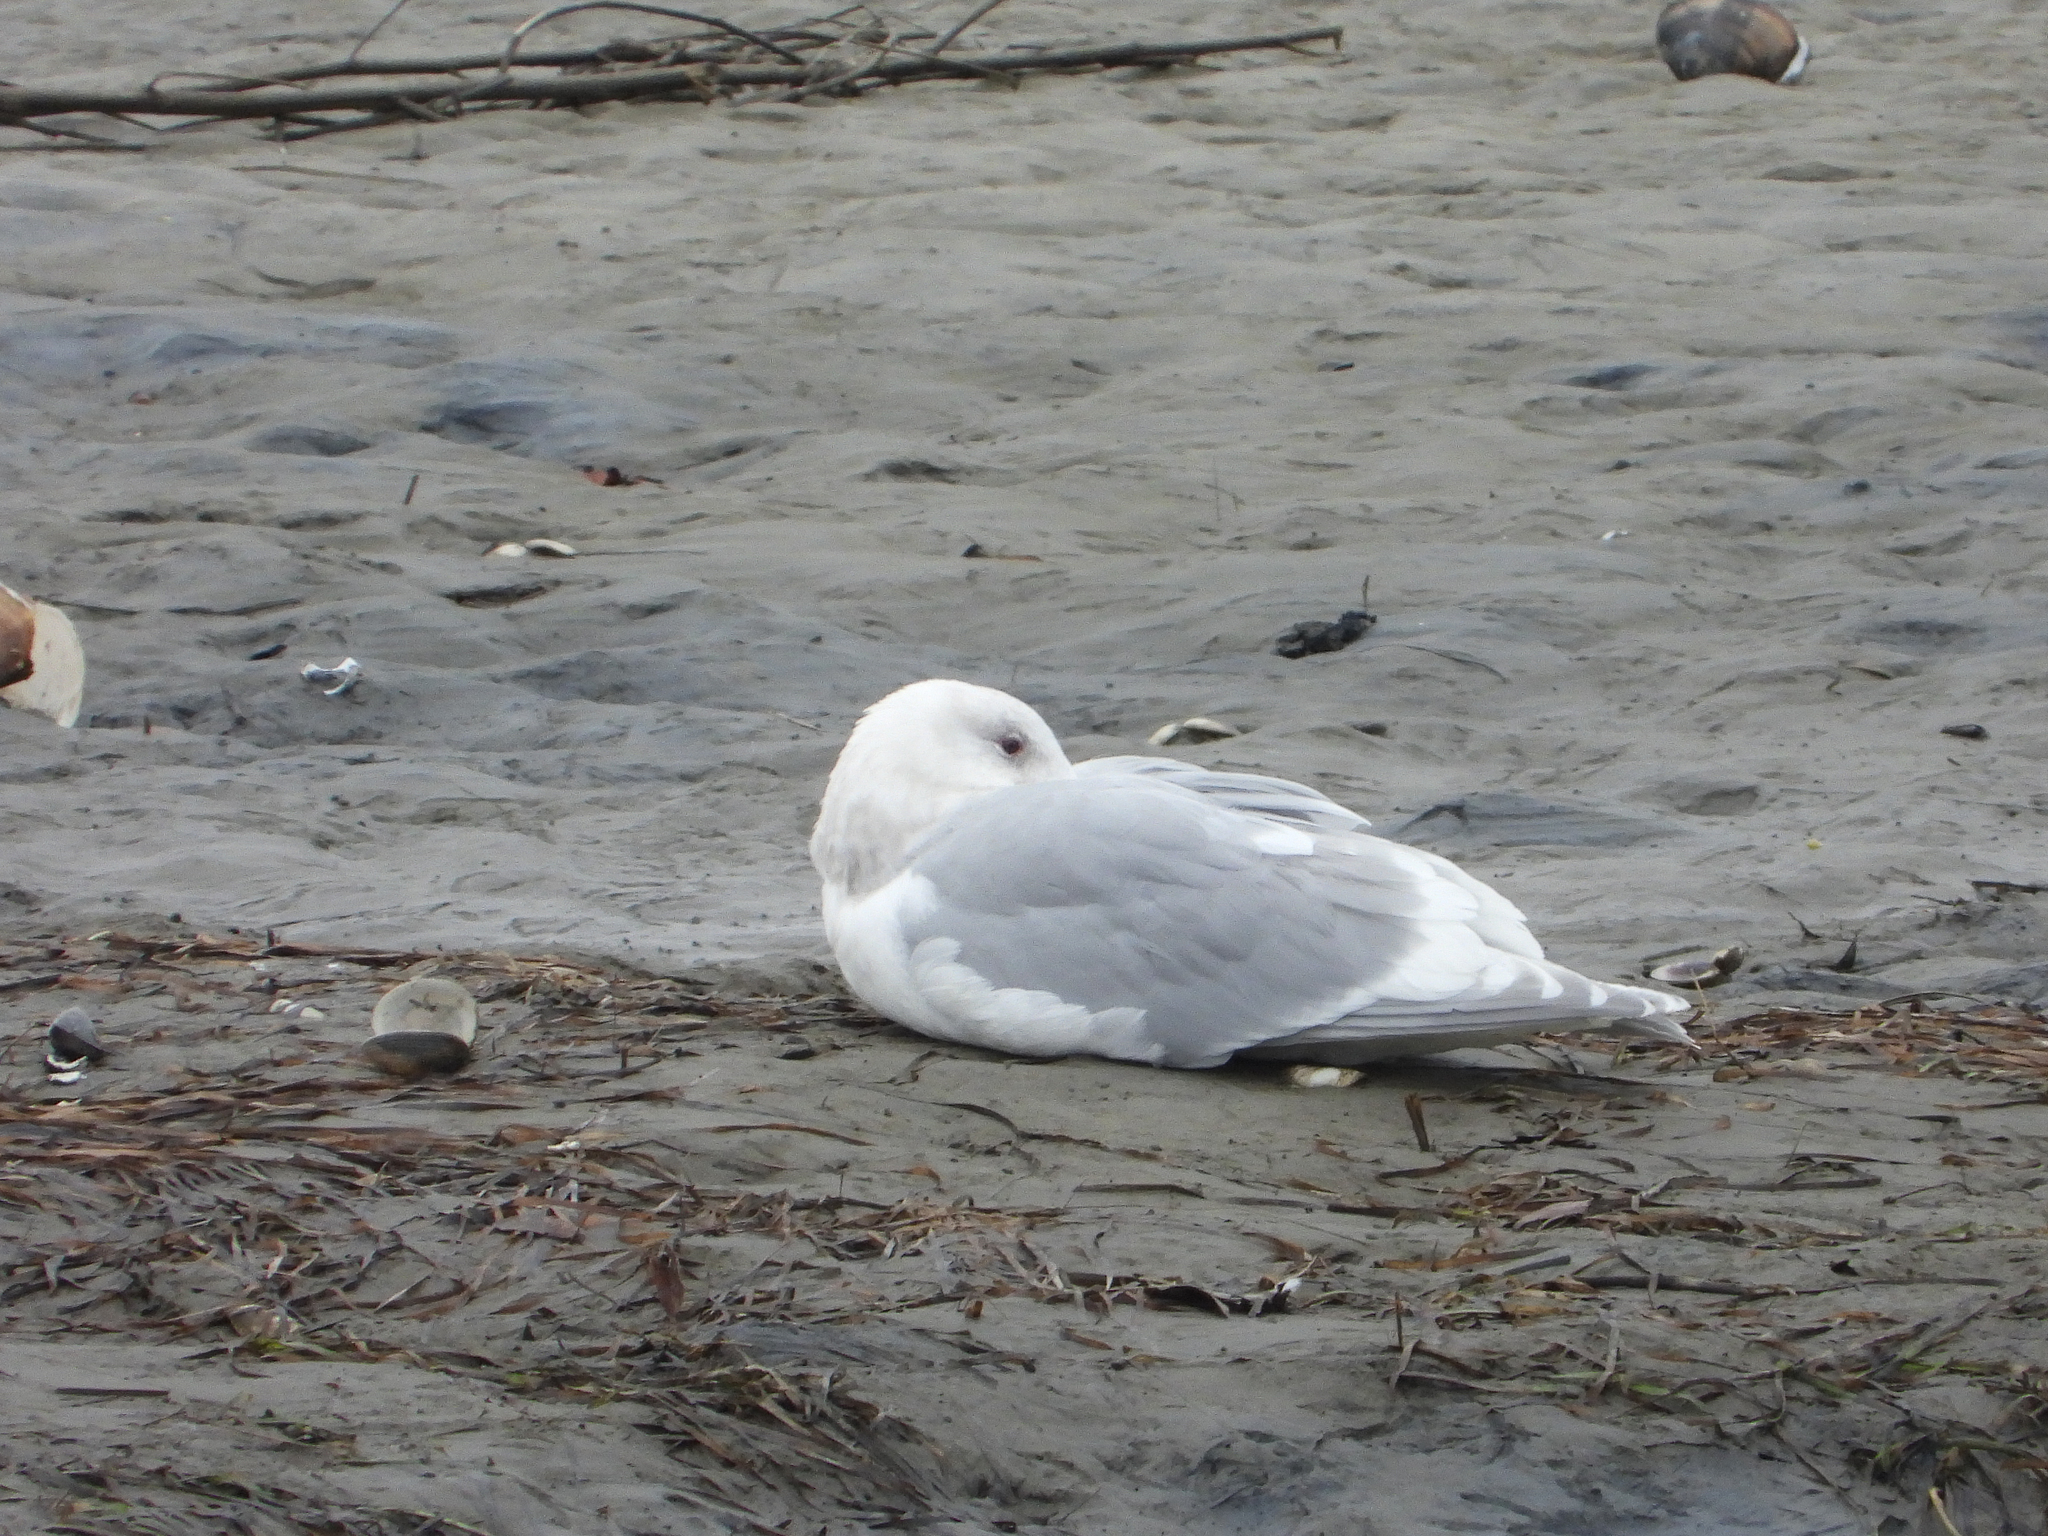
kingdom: Animalia
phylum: Chordata
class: Aves
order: Charadriiformes
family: Laridae
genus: Larus
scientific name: Larus glaucescens
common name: Glaucous-winged gull
